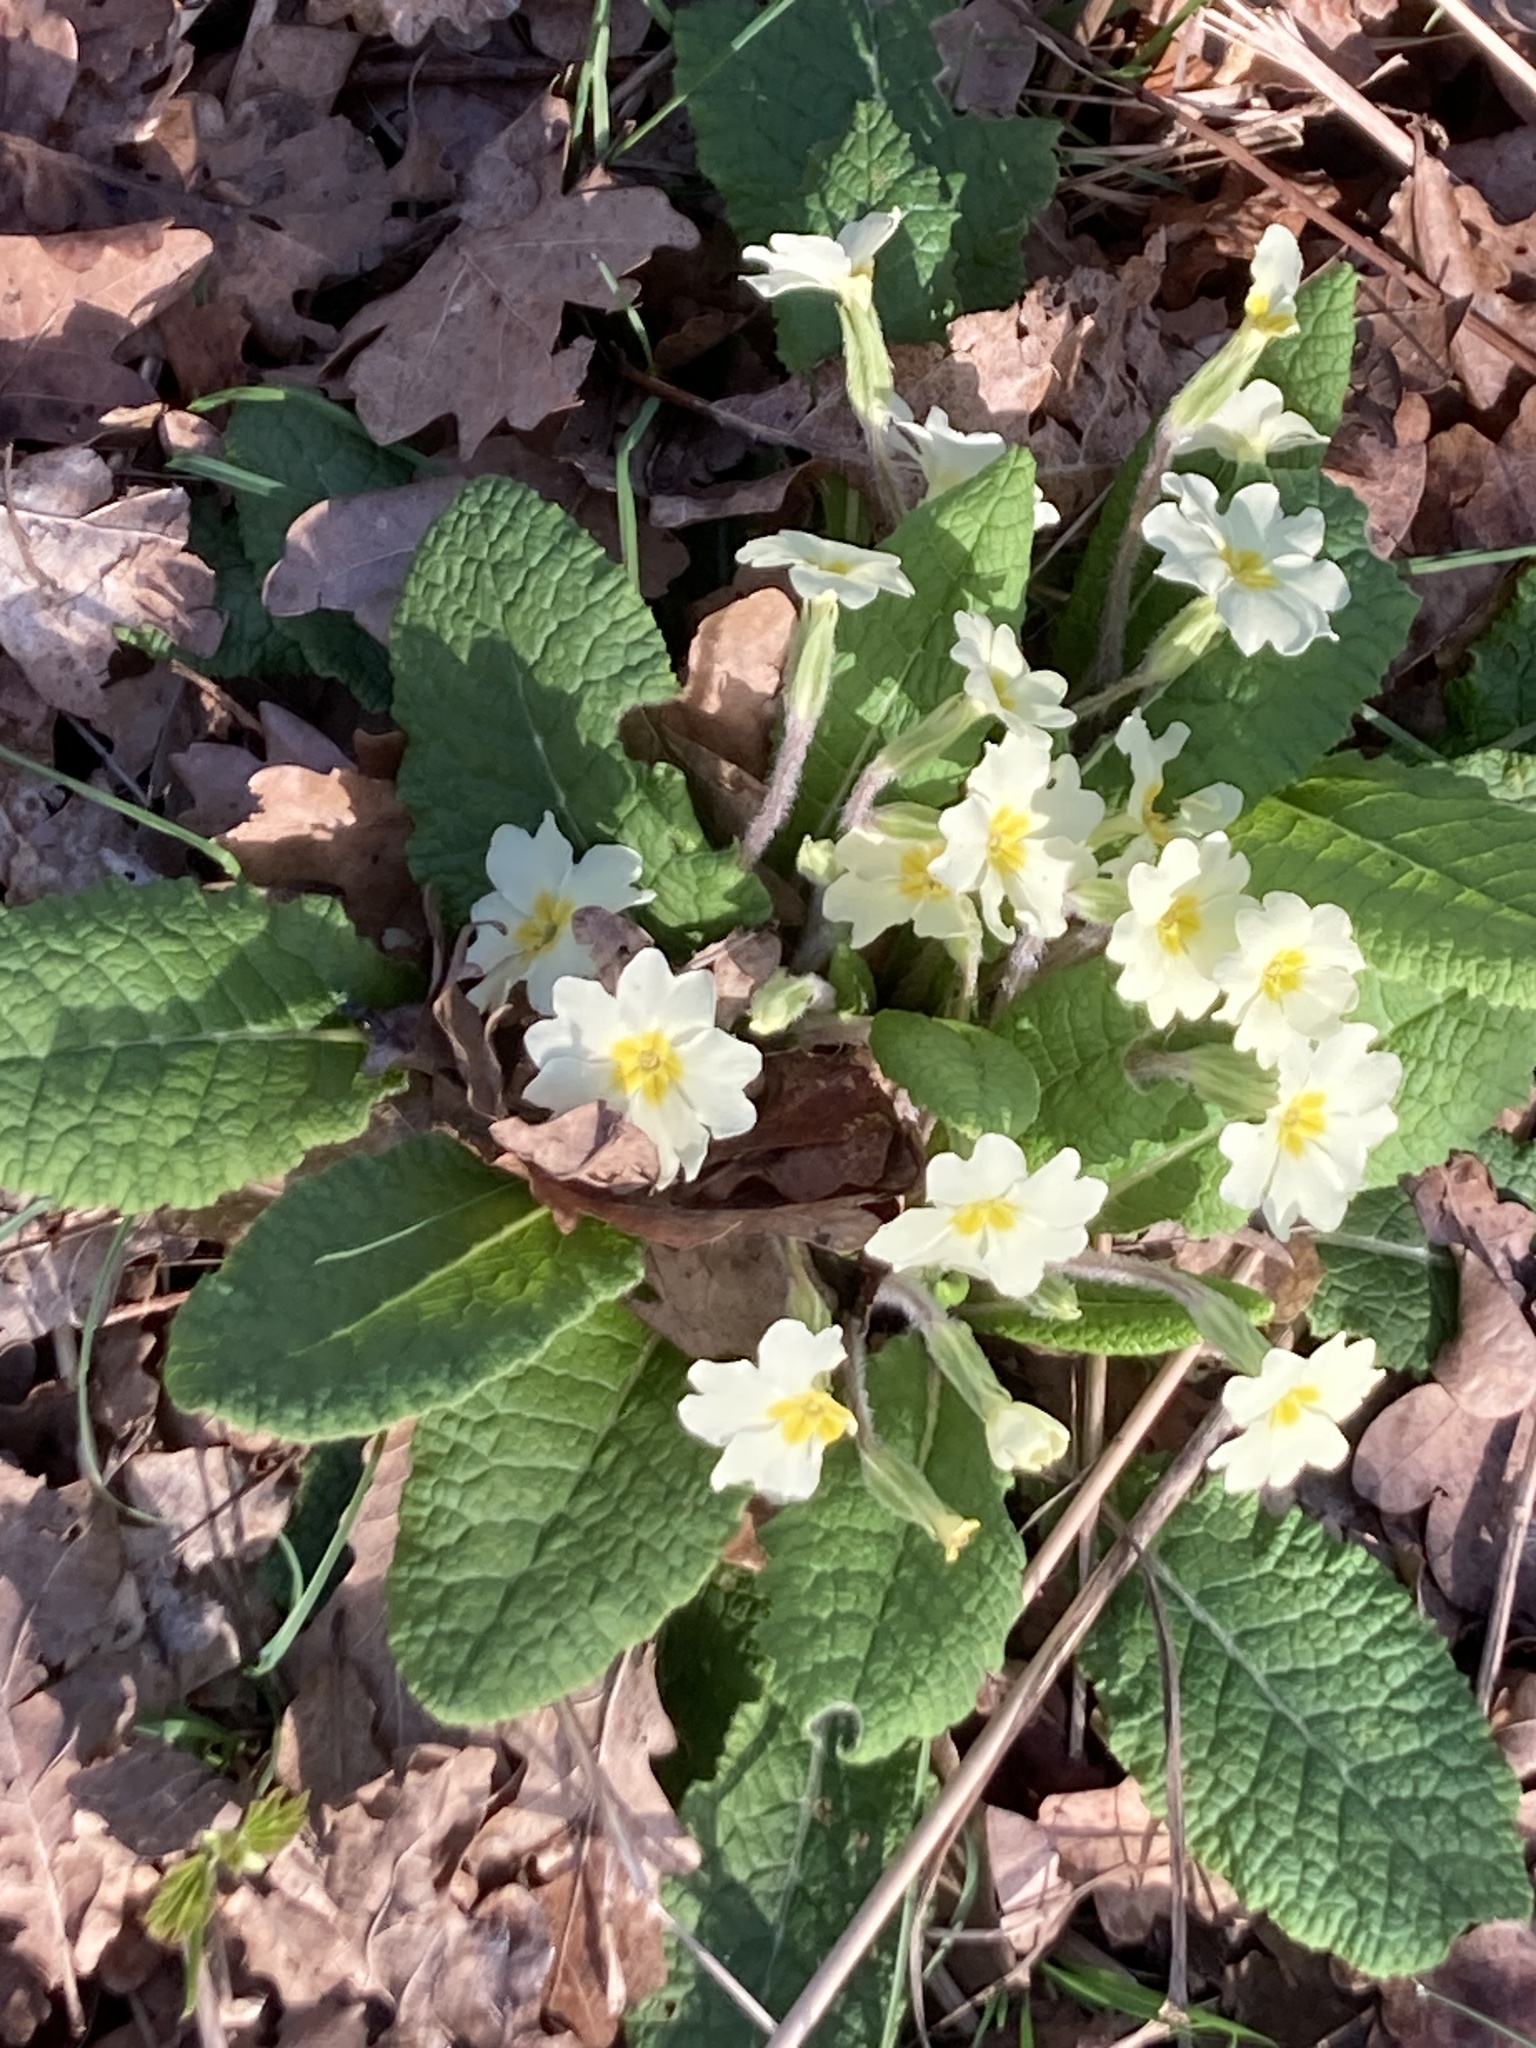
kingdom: Plantae
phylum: Tracheophyta
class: Magnoliopsida
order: Ericales
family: Primulaceae
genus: Primula
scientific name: Primula vulgaris
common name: Primrose
